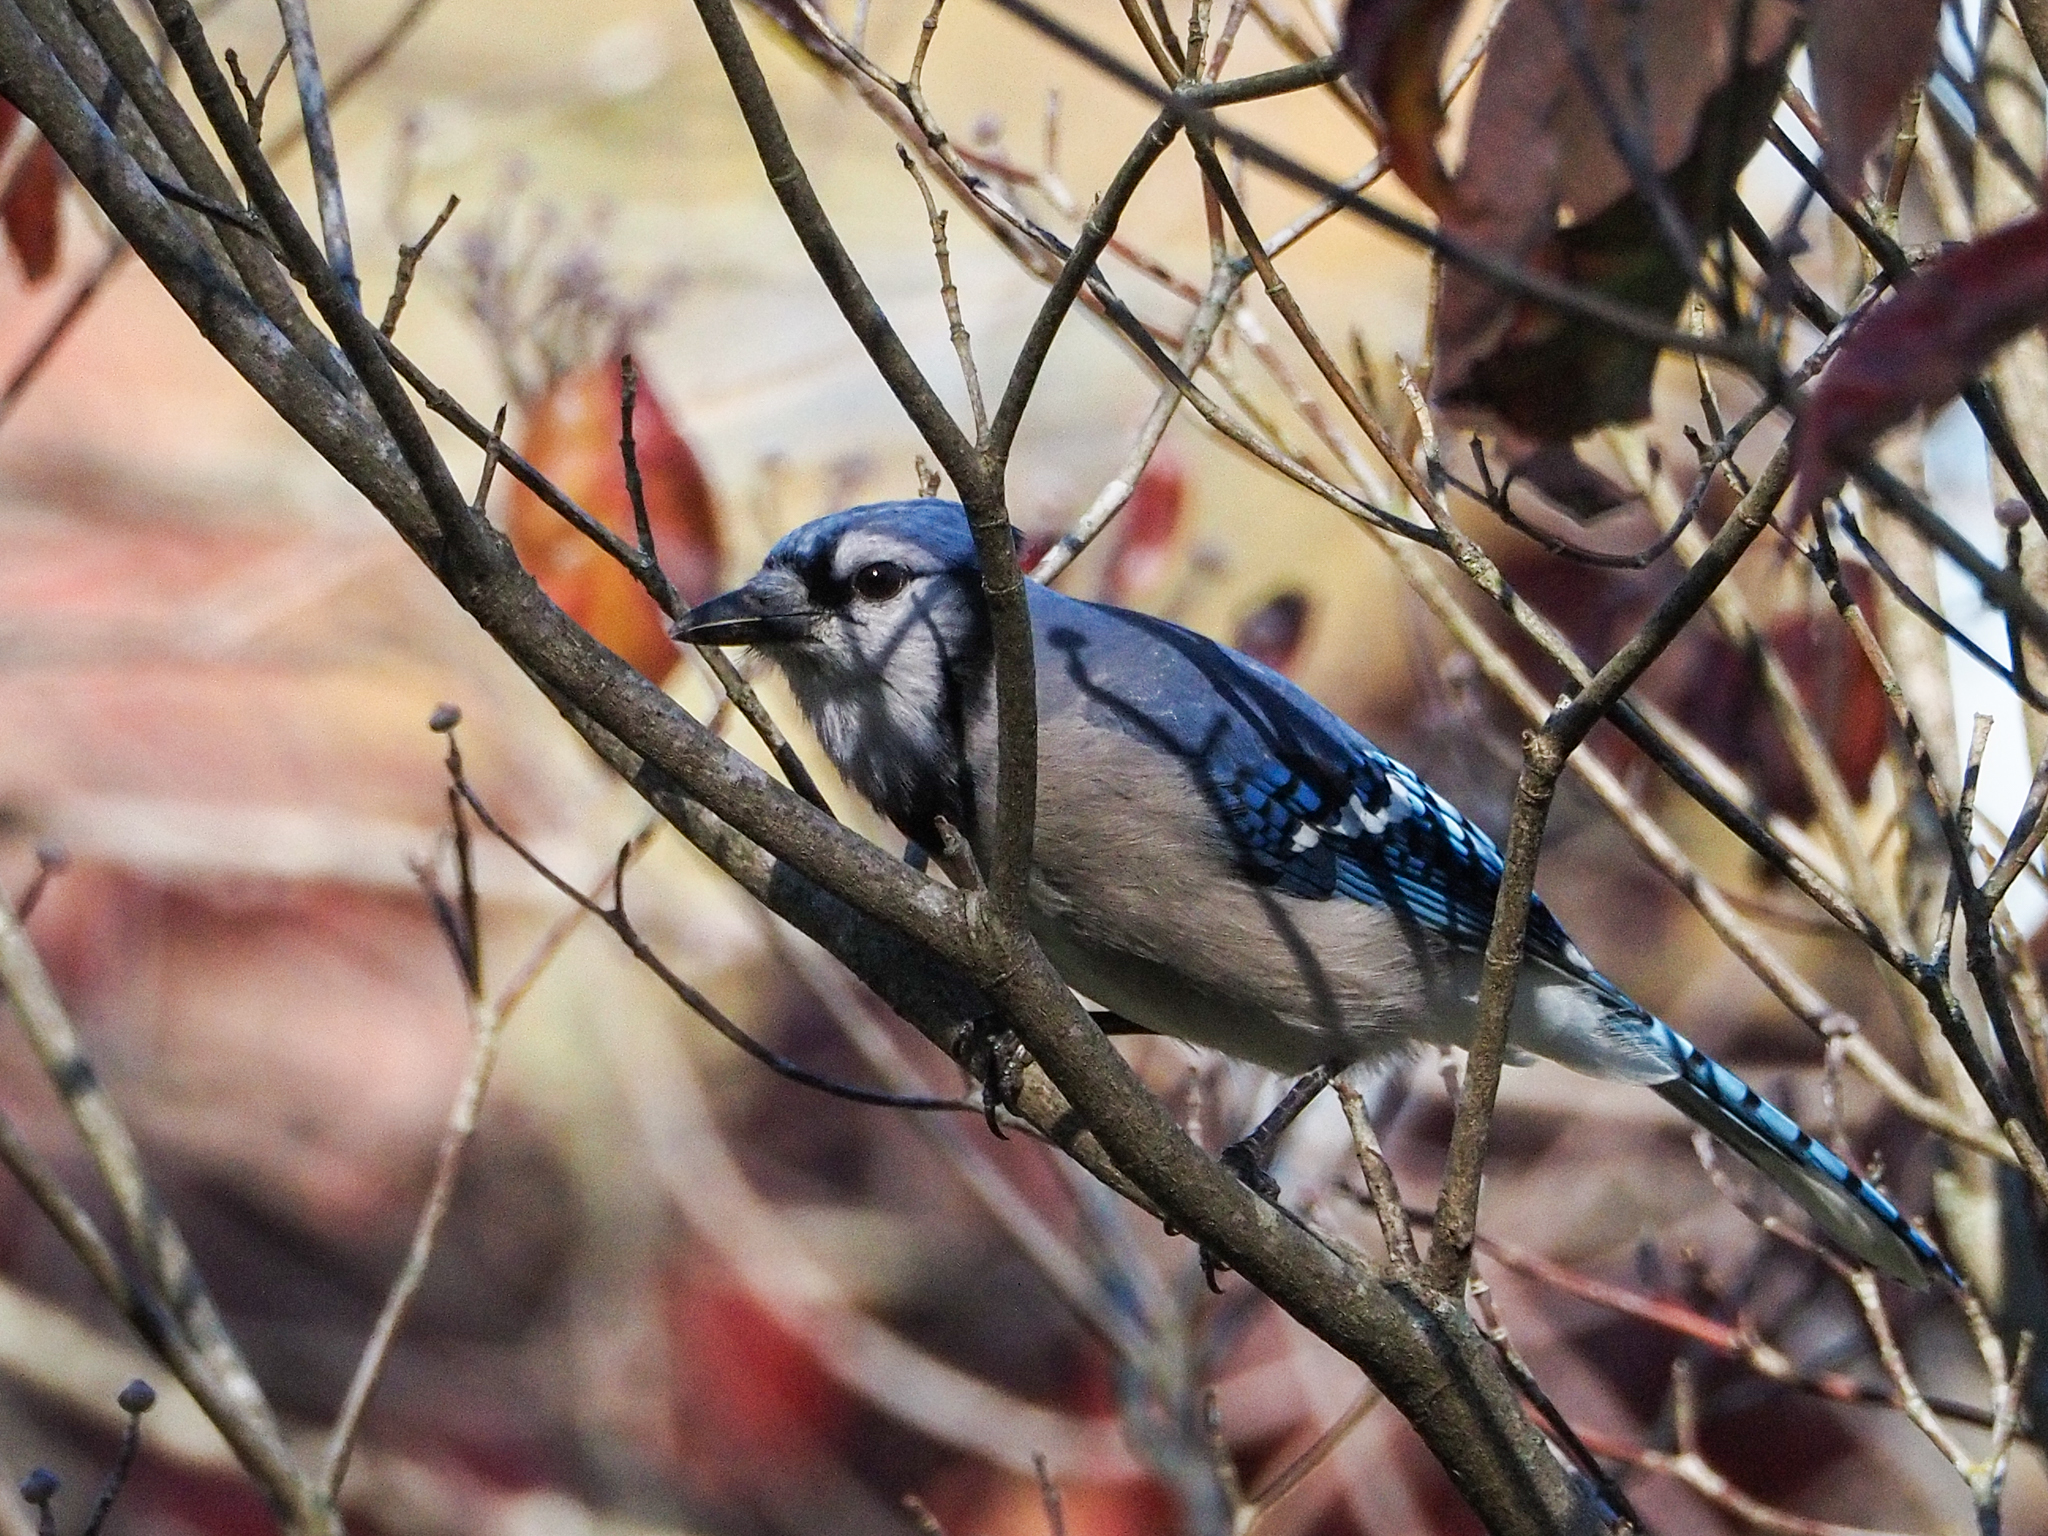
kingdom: Animalia
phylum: Chordata
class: Aves
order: Passeriformes
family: Corvidae
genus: Cyanocitta
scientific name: Cyanocitta cristata
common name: Blue jay
